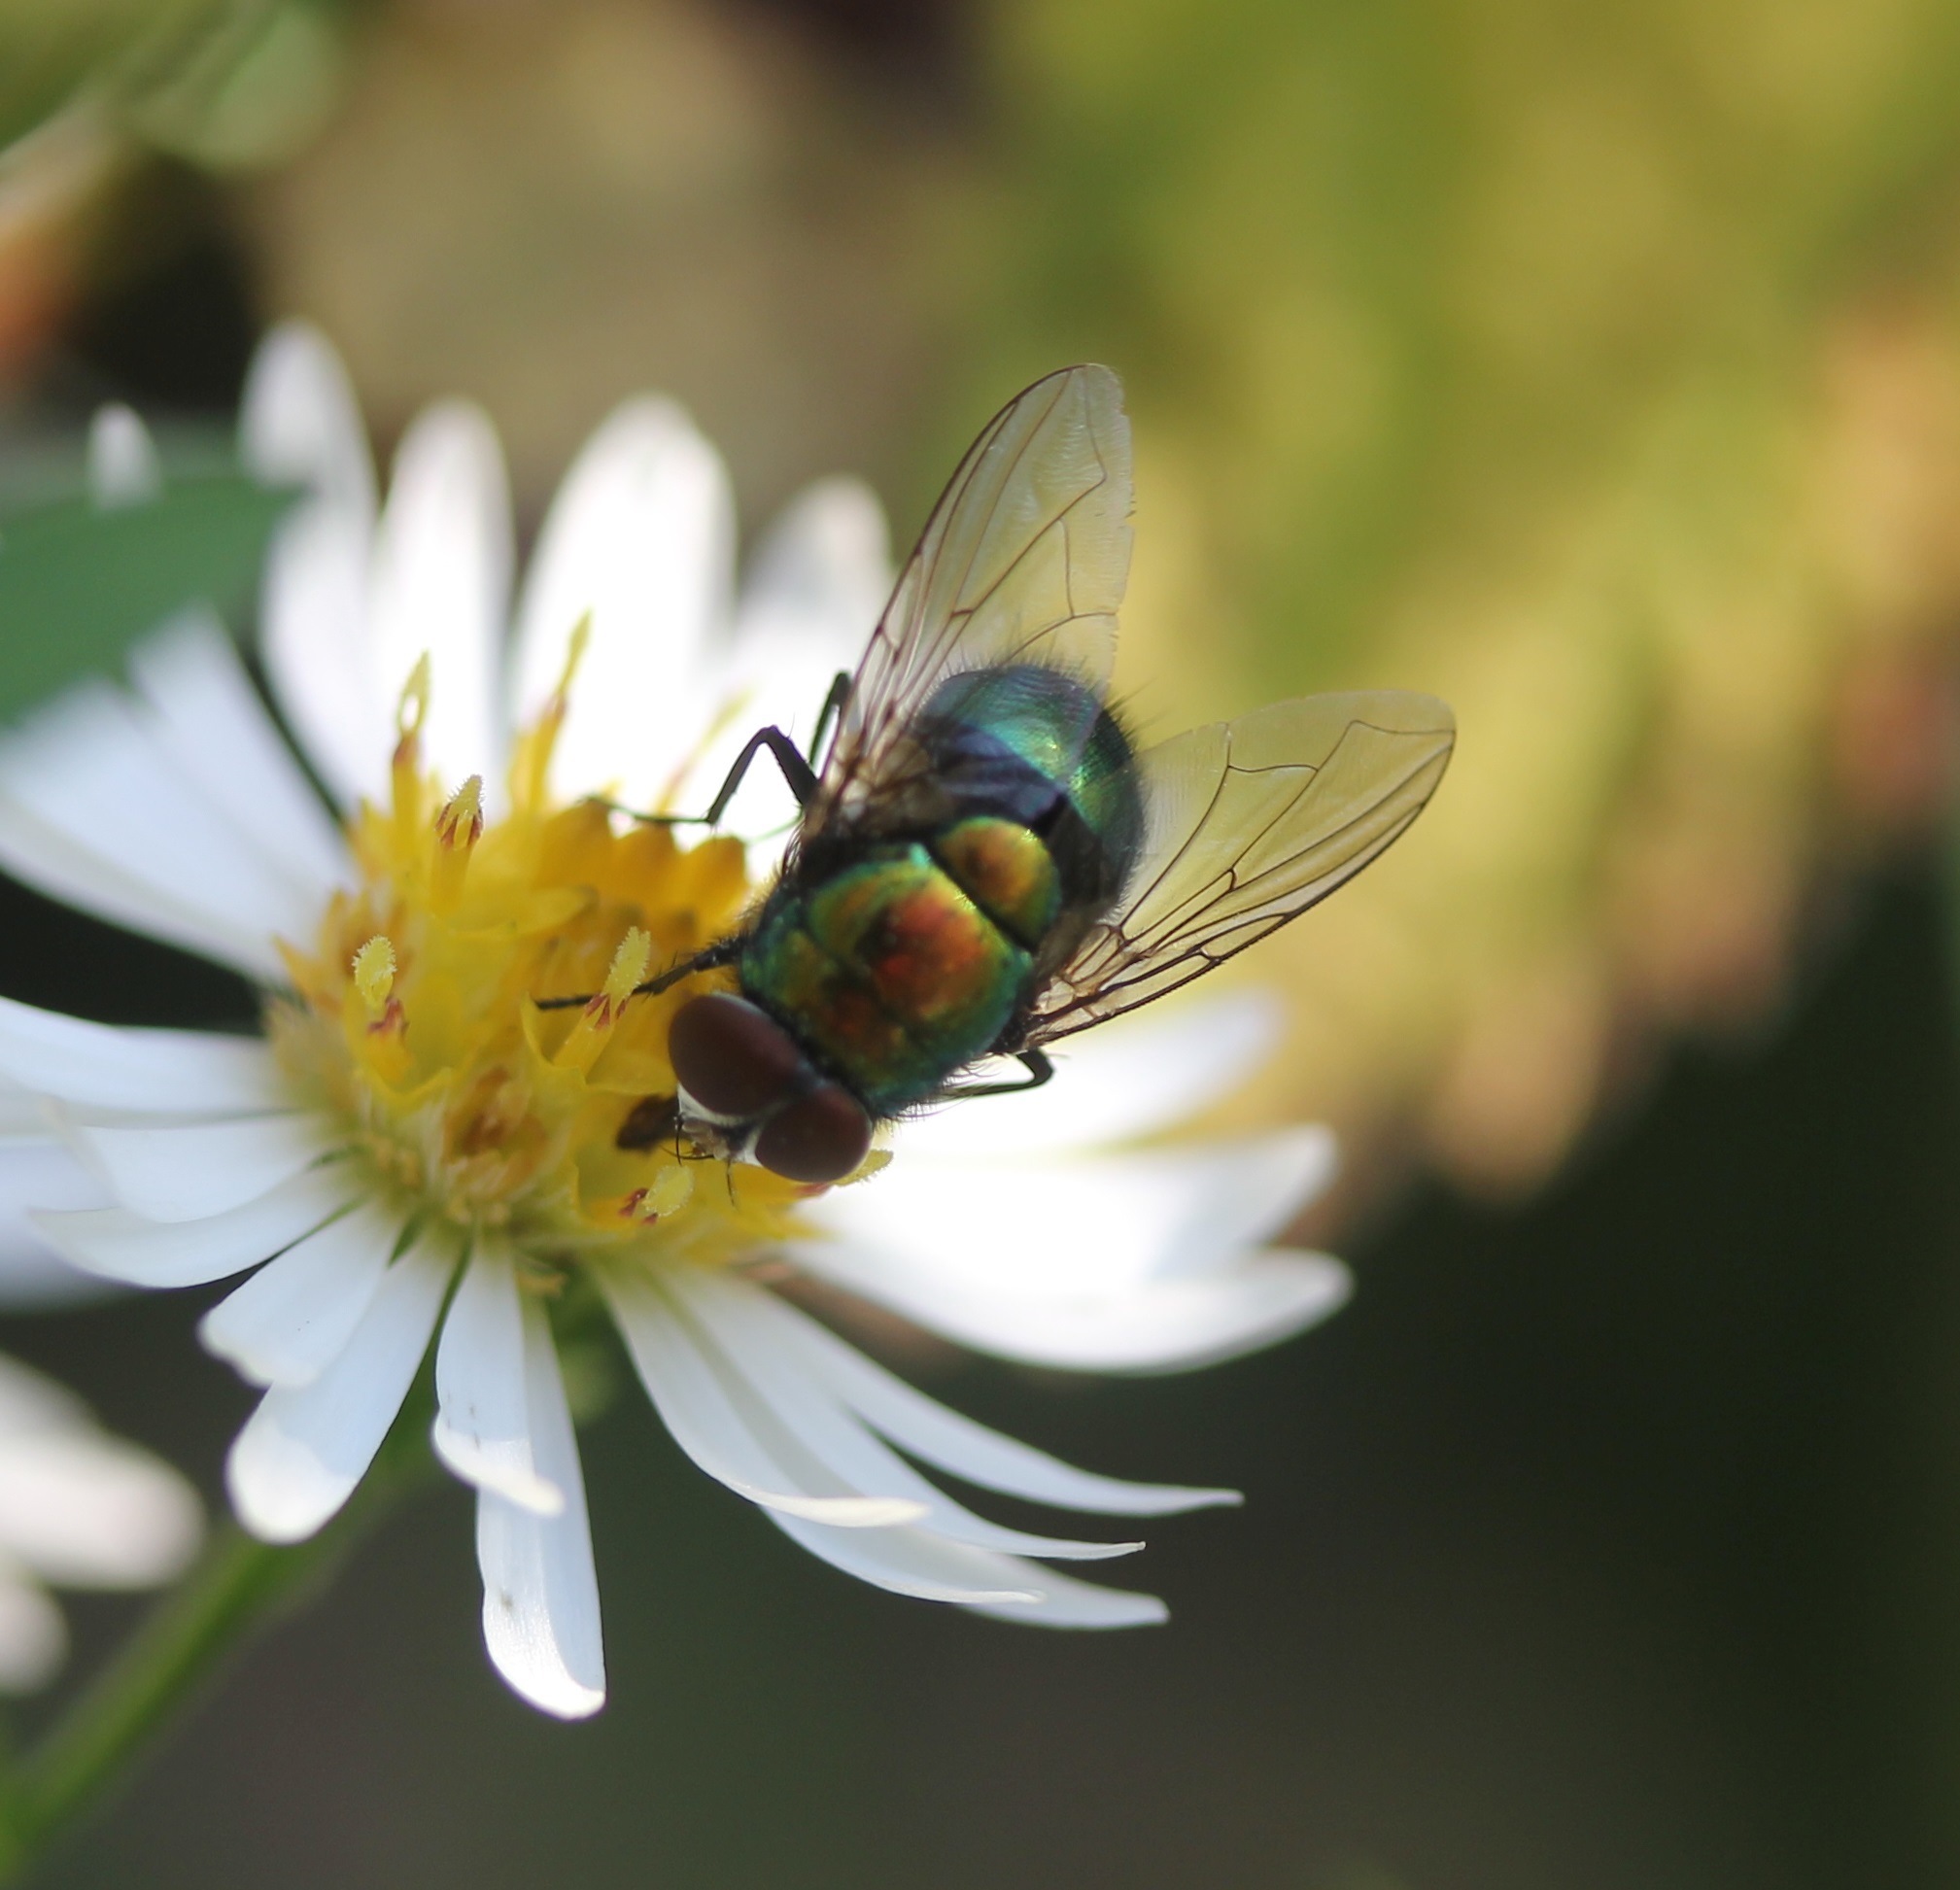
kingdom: Animalia
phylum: Arthropoda
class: Insecta
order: Diptera
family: Calliphoridae
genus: Lucilia
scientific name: Lucilia caeruleiviridis
